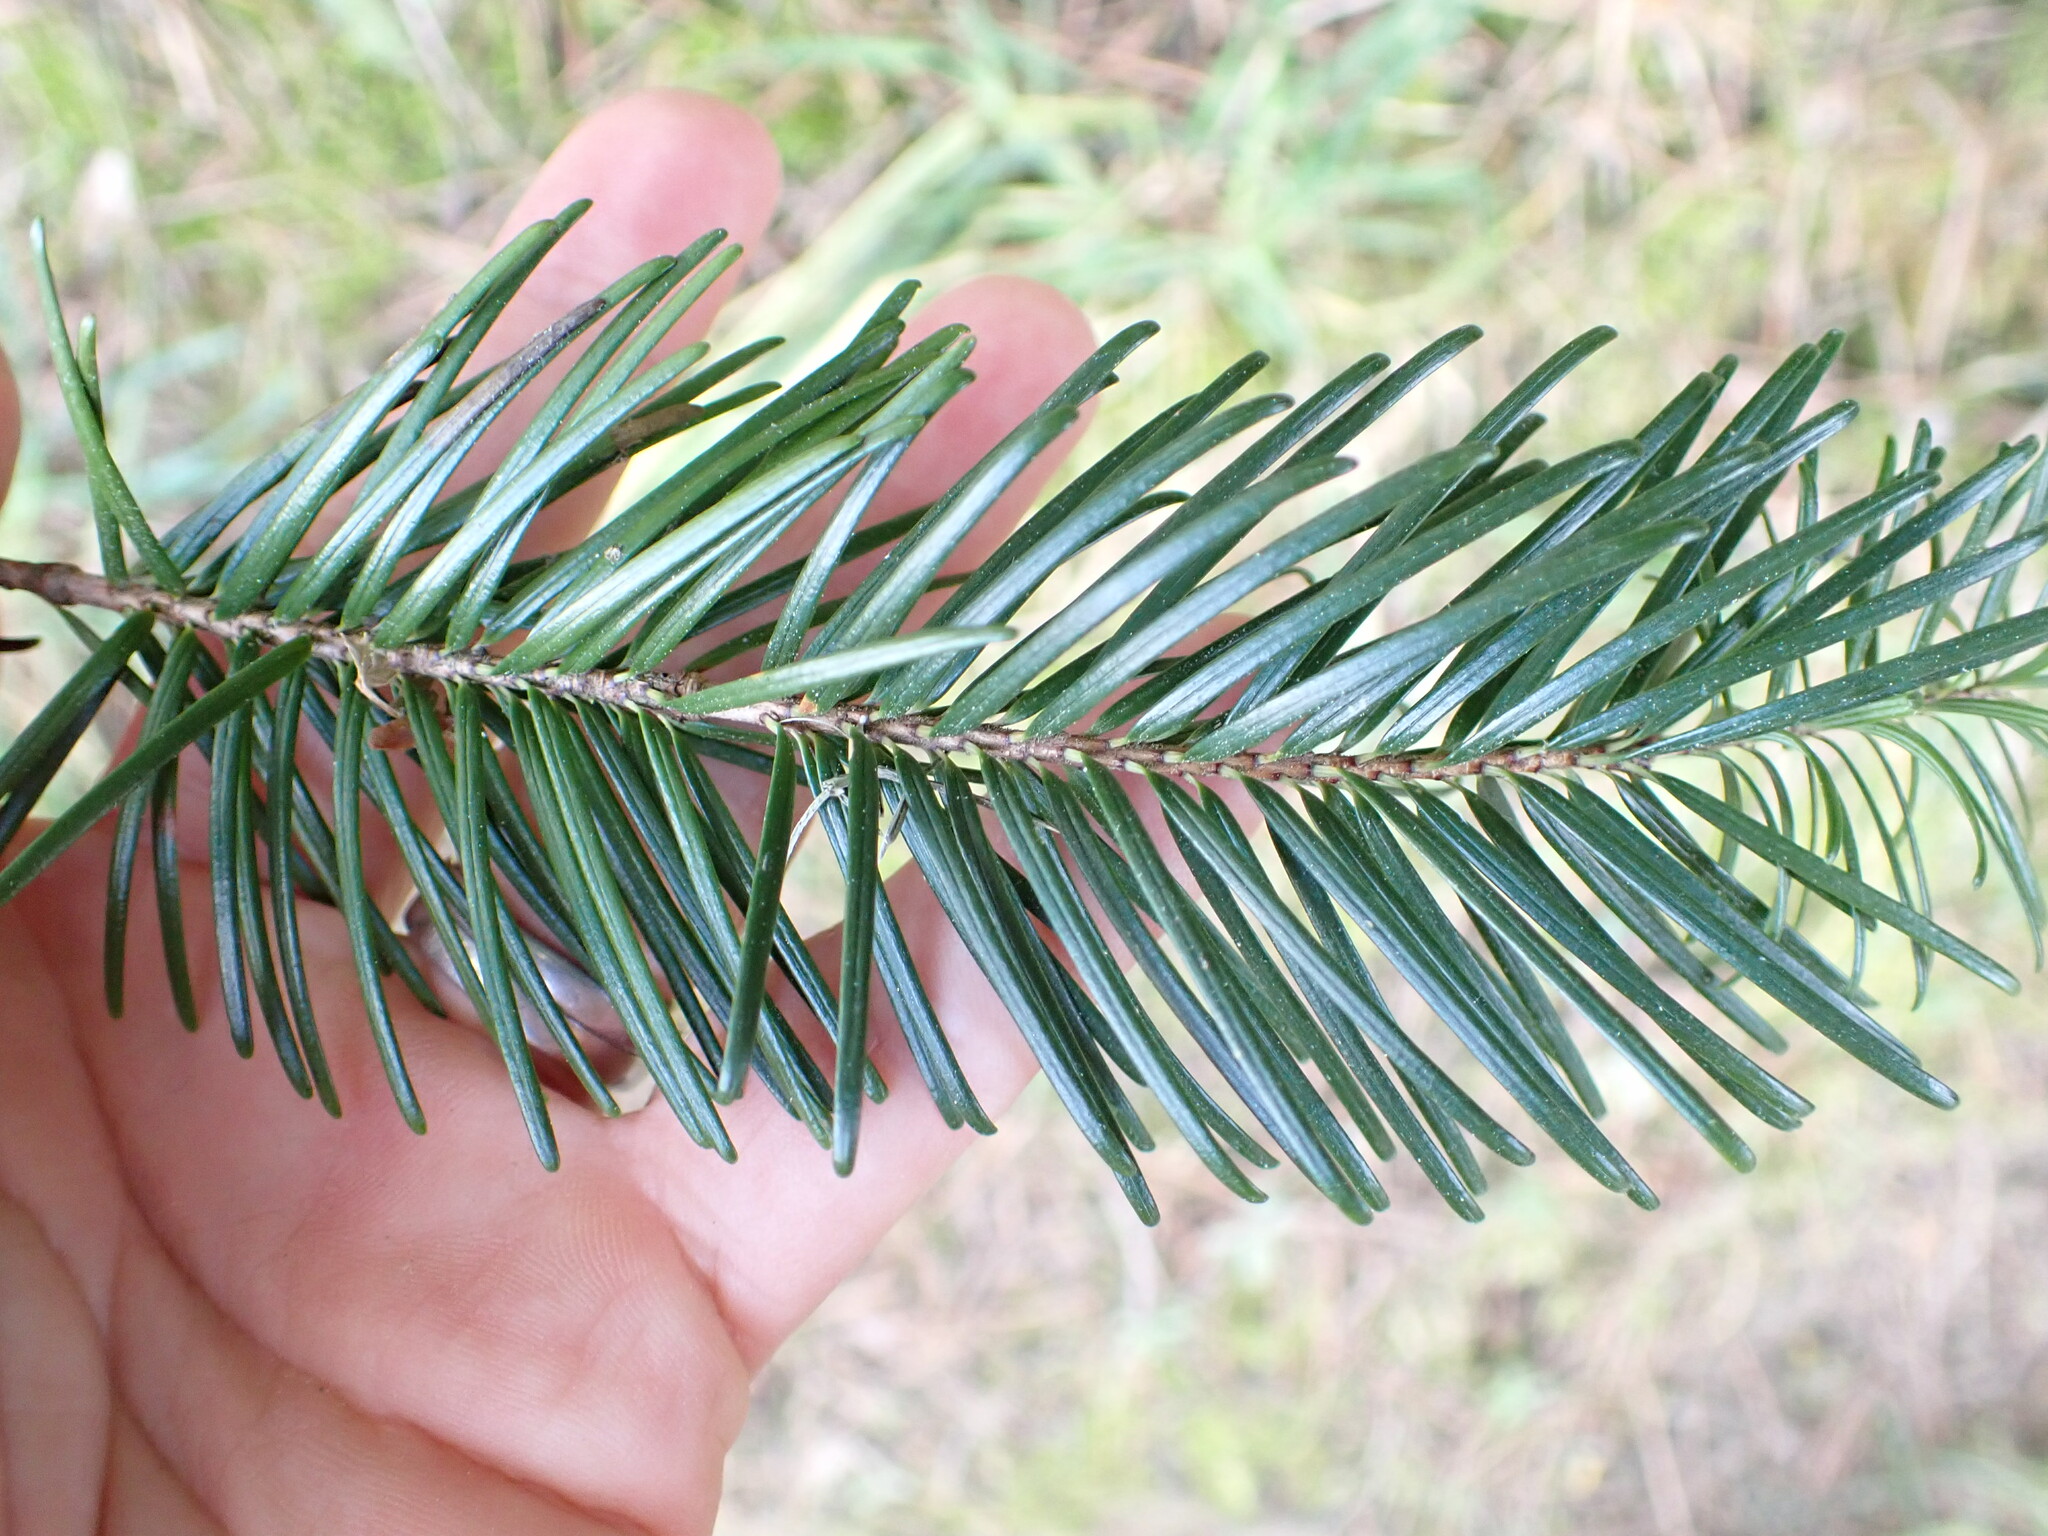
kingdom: Plantae
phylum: Tracheophyta
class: Pinopsida
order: Pinales
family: Pinaceae
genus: Pseudotsuga
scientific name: Pseudotsuga menziesii
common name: Douglas fir
